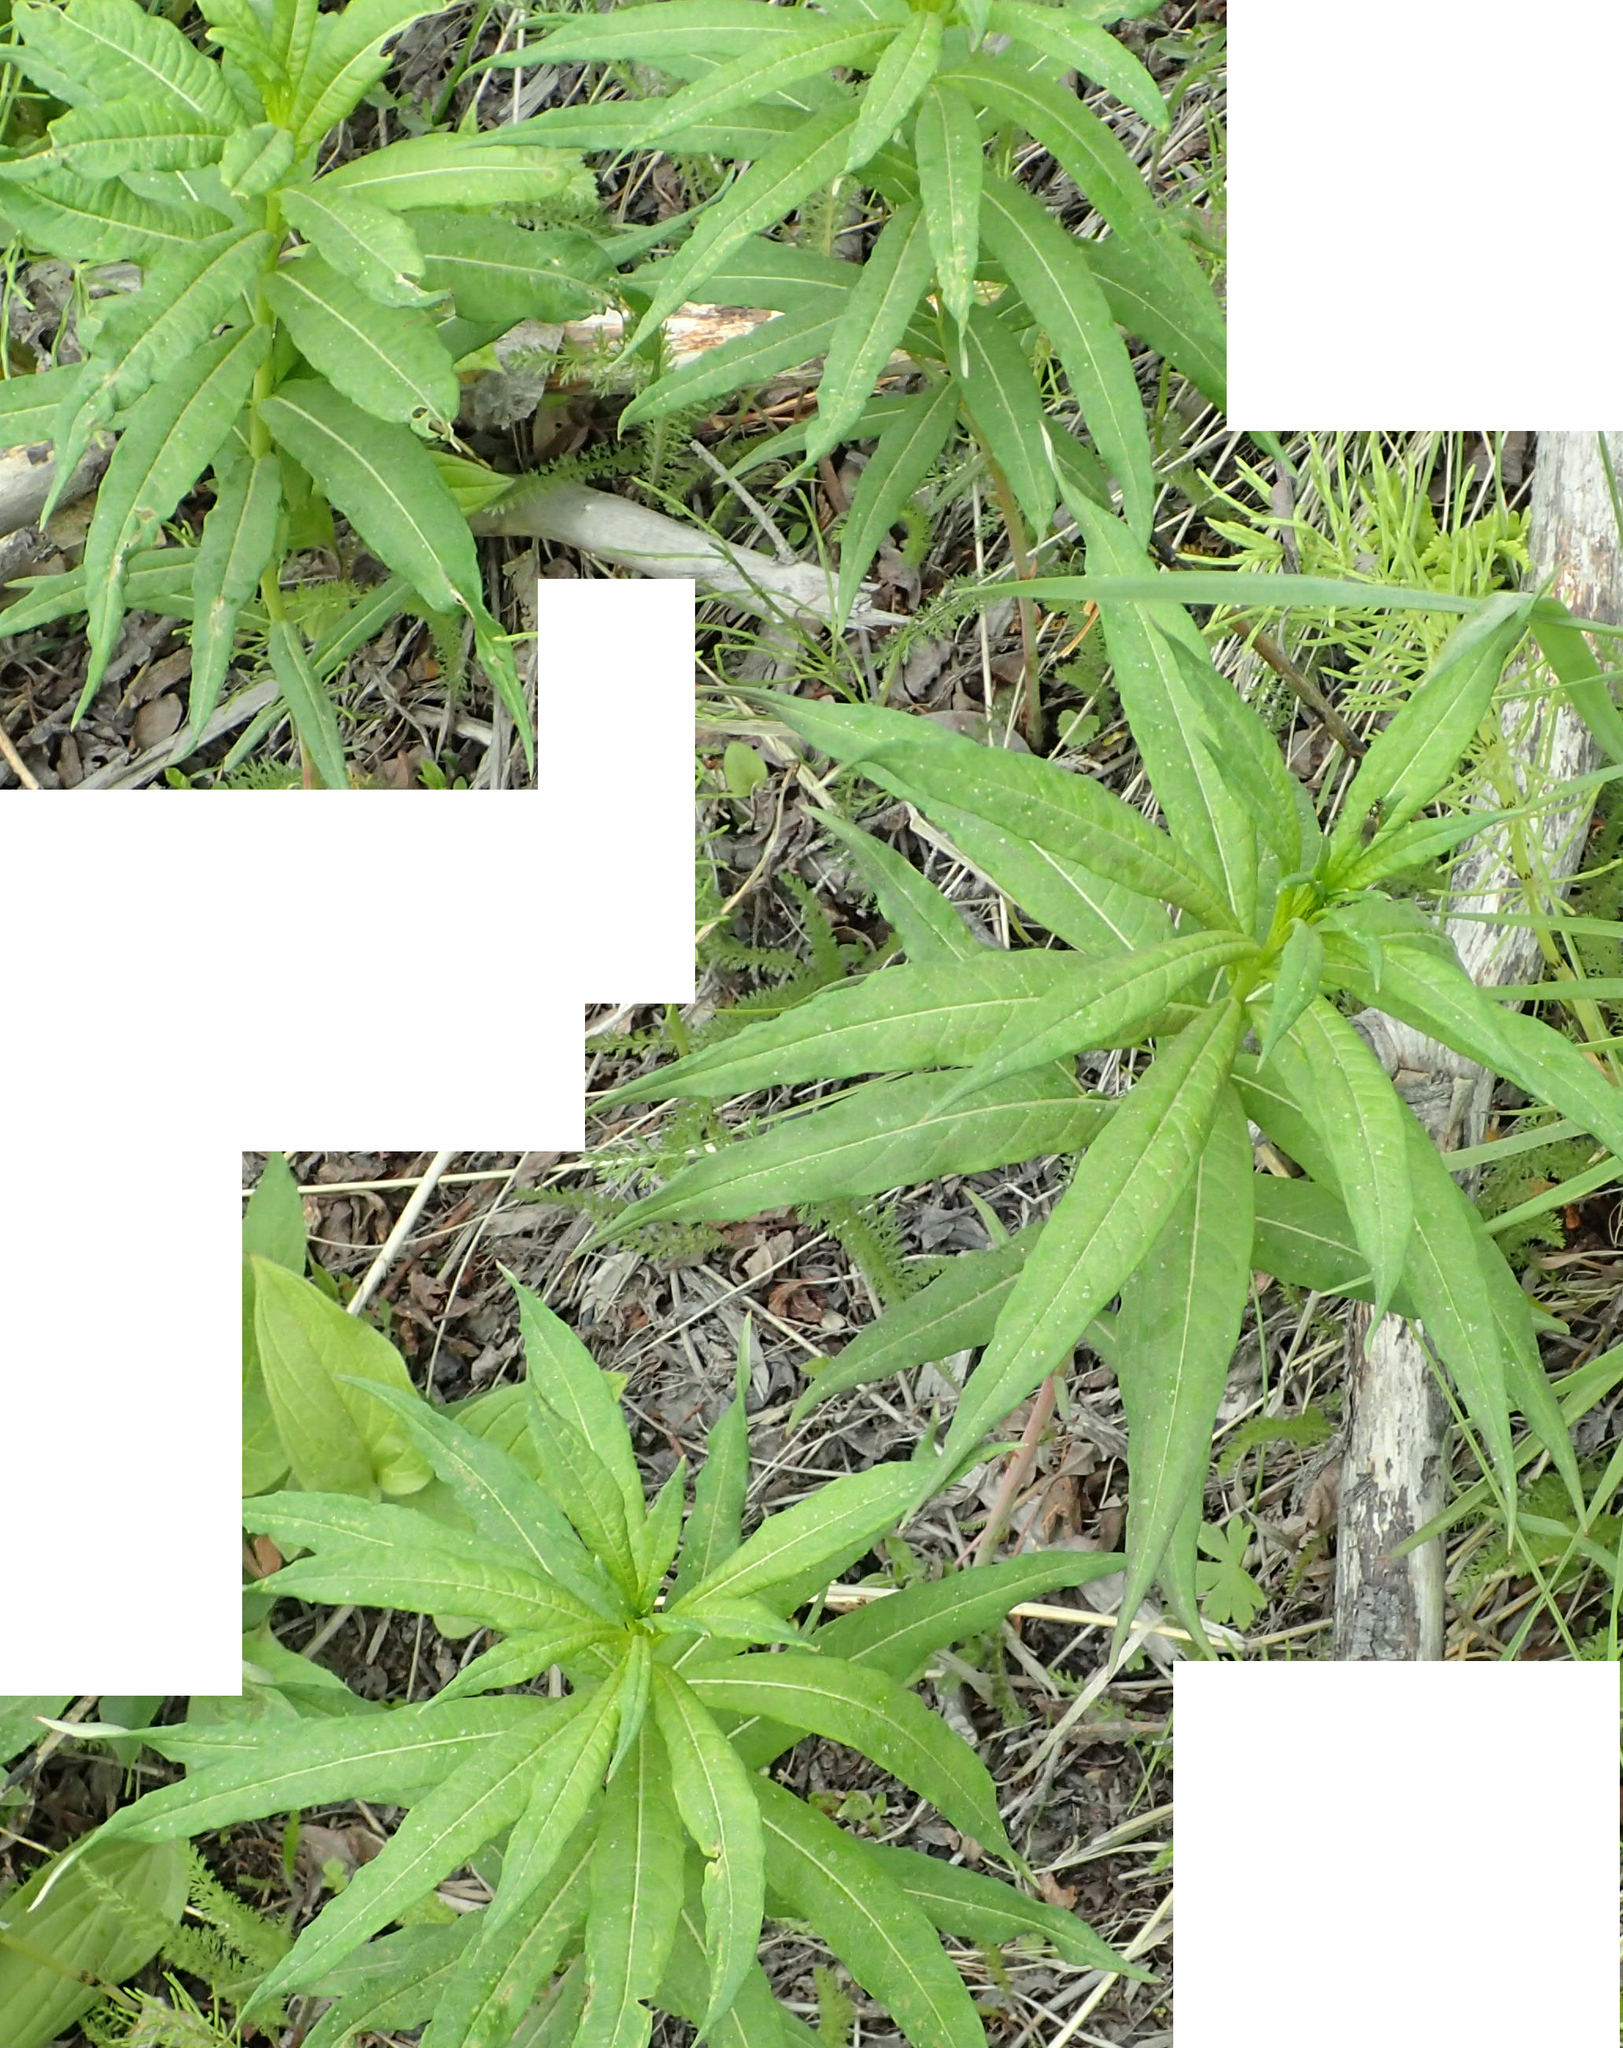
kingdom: Plantae
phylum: Tracheophyta
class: Magnoliopsida
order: Myrtales
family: Onagraceae
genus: Chamaenerion
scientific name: Chamaenerion angustifolium
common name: Fireweed
